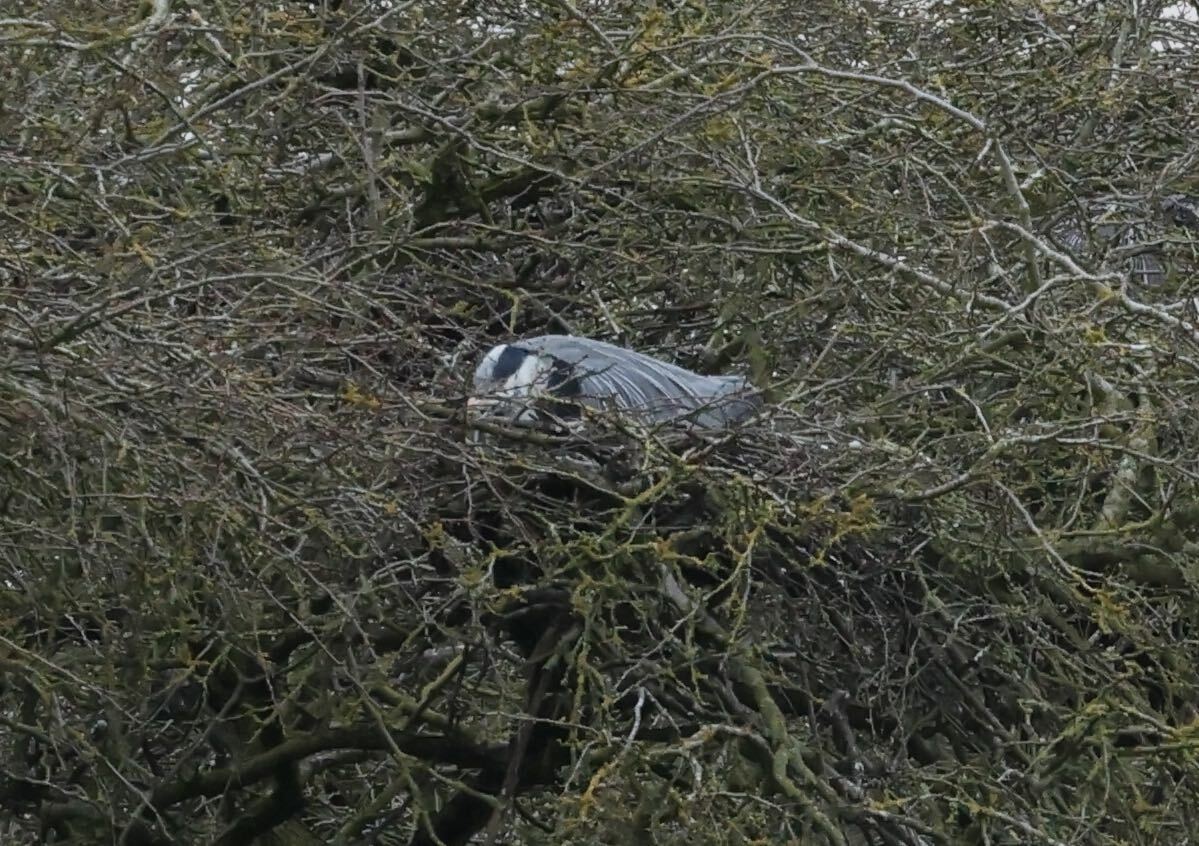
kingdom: Animalia
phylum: Chordata
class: Aves
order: Pelecaniformes
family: Ardeidae
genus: Ardea
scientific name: Ardea cinerea
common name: Grey heron
